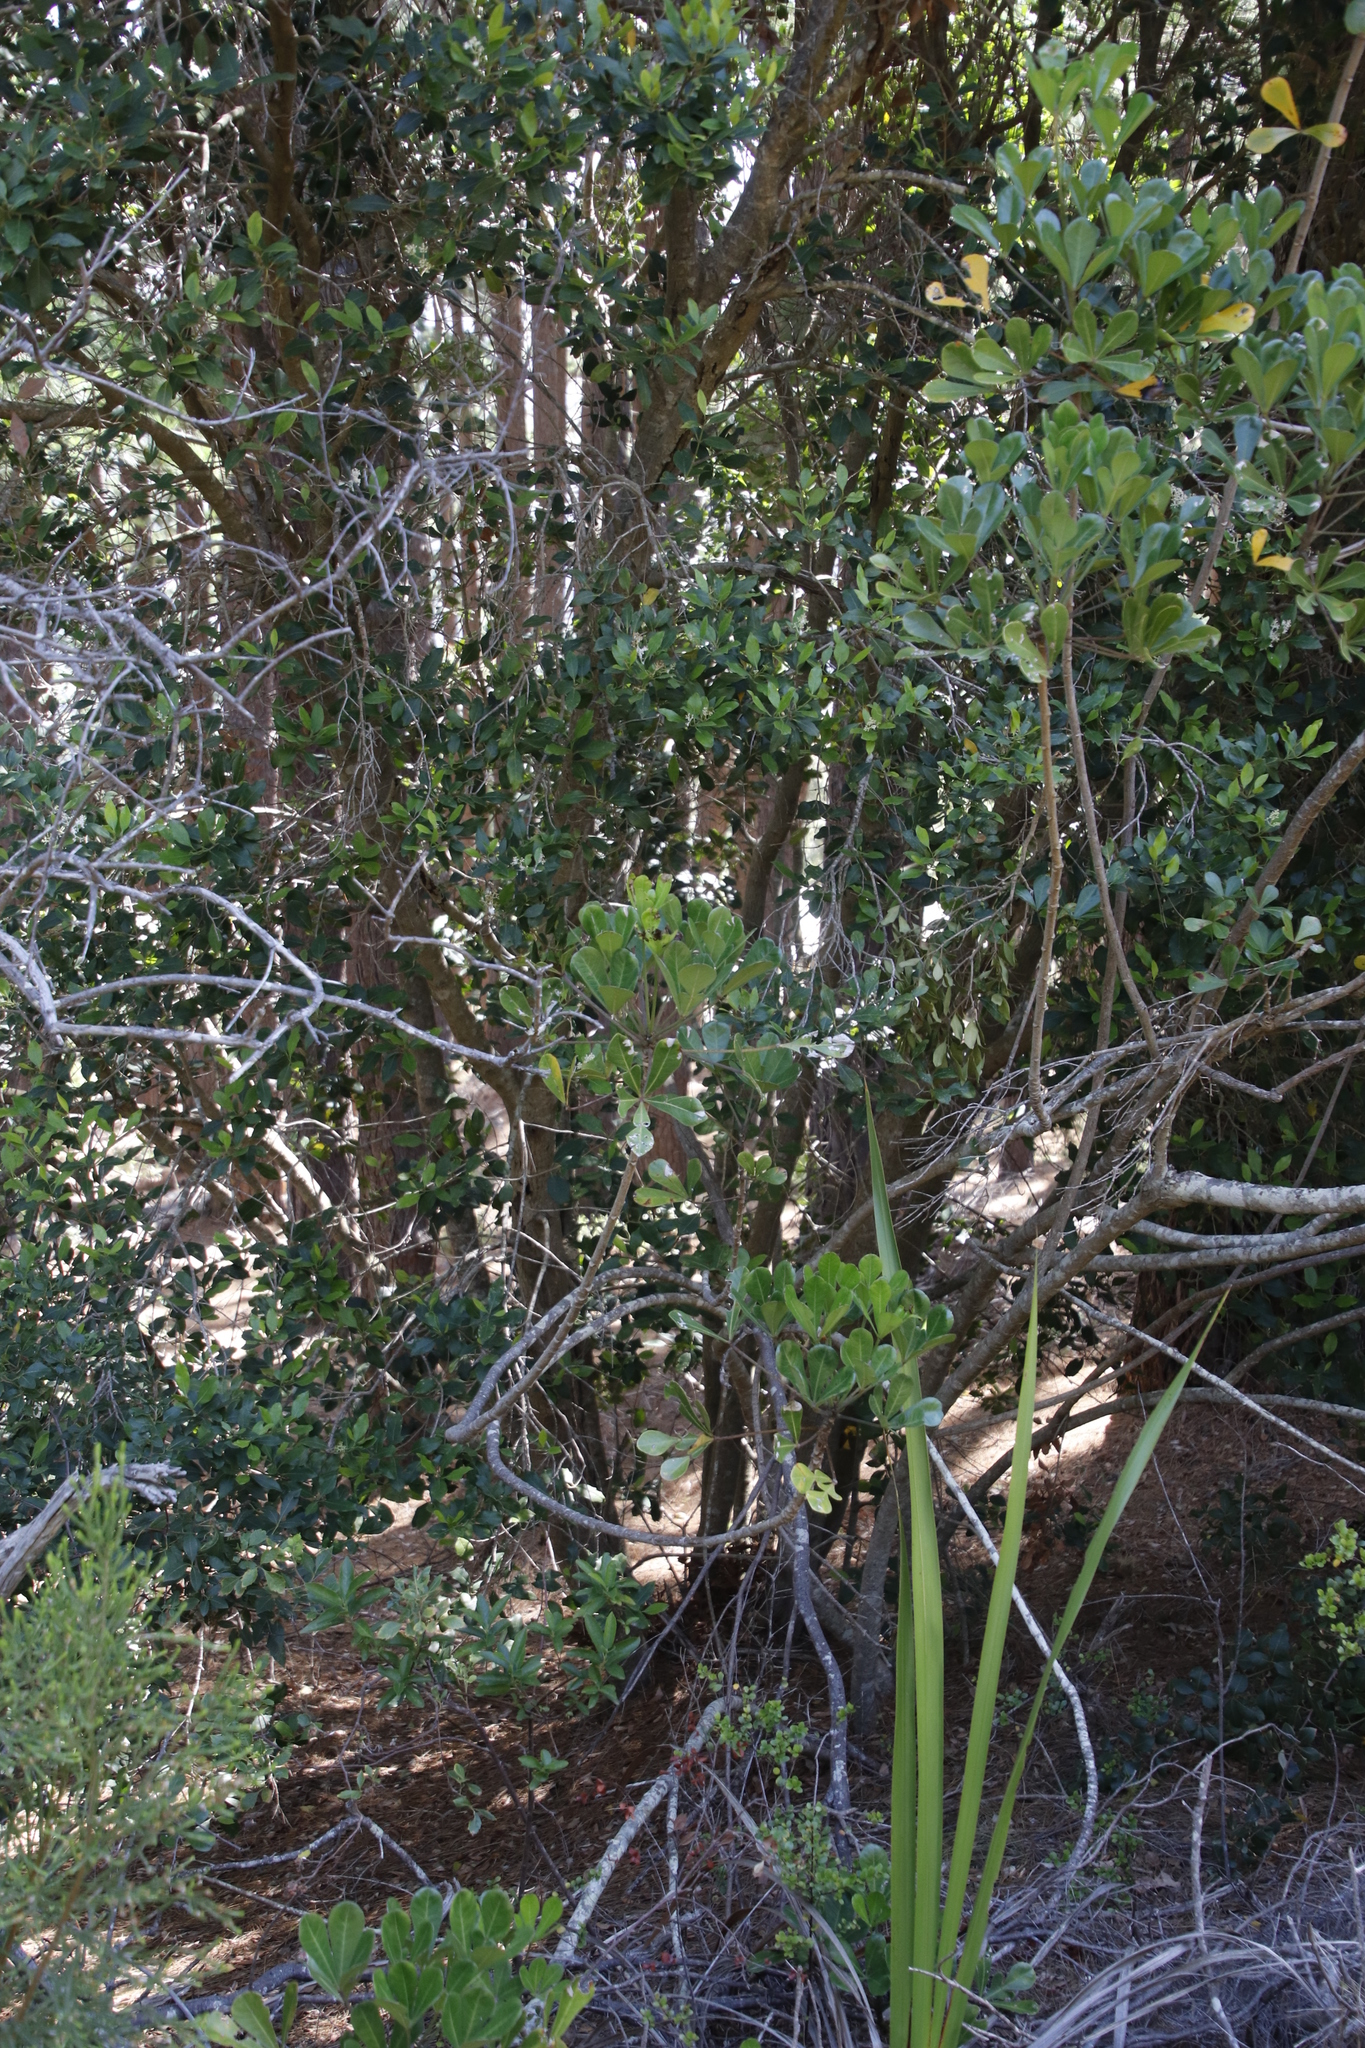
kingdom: Plantae
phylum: Tracheophyta
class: Magnoliopsida
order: Apiales
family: Araliaceae
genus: Cussonia
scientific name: Cussonia thyrsiflora
